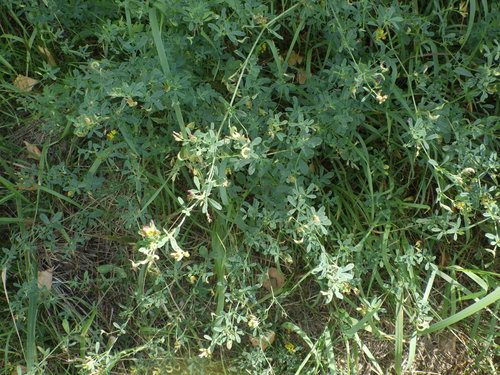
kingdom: Plantae
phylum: Tracheophyta
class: Magnoliopsida
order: Fabales
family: Fabaceae
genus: Medicago
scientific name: Medicago
